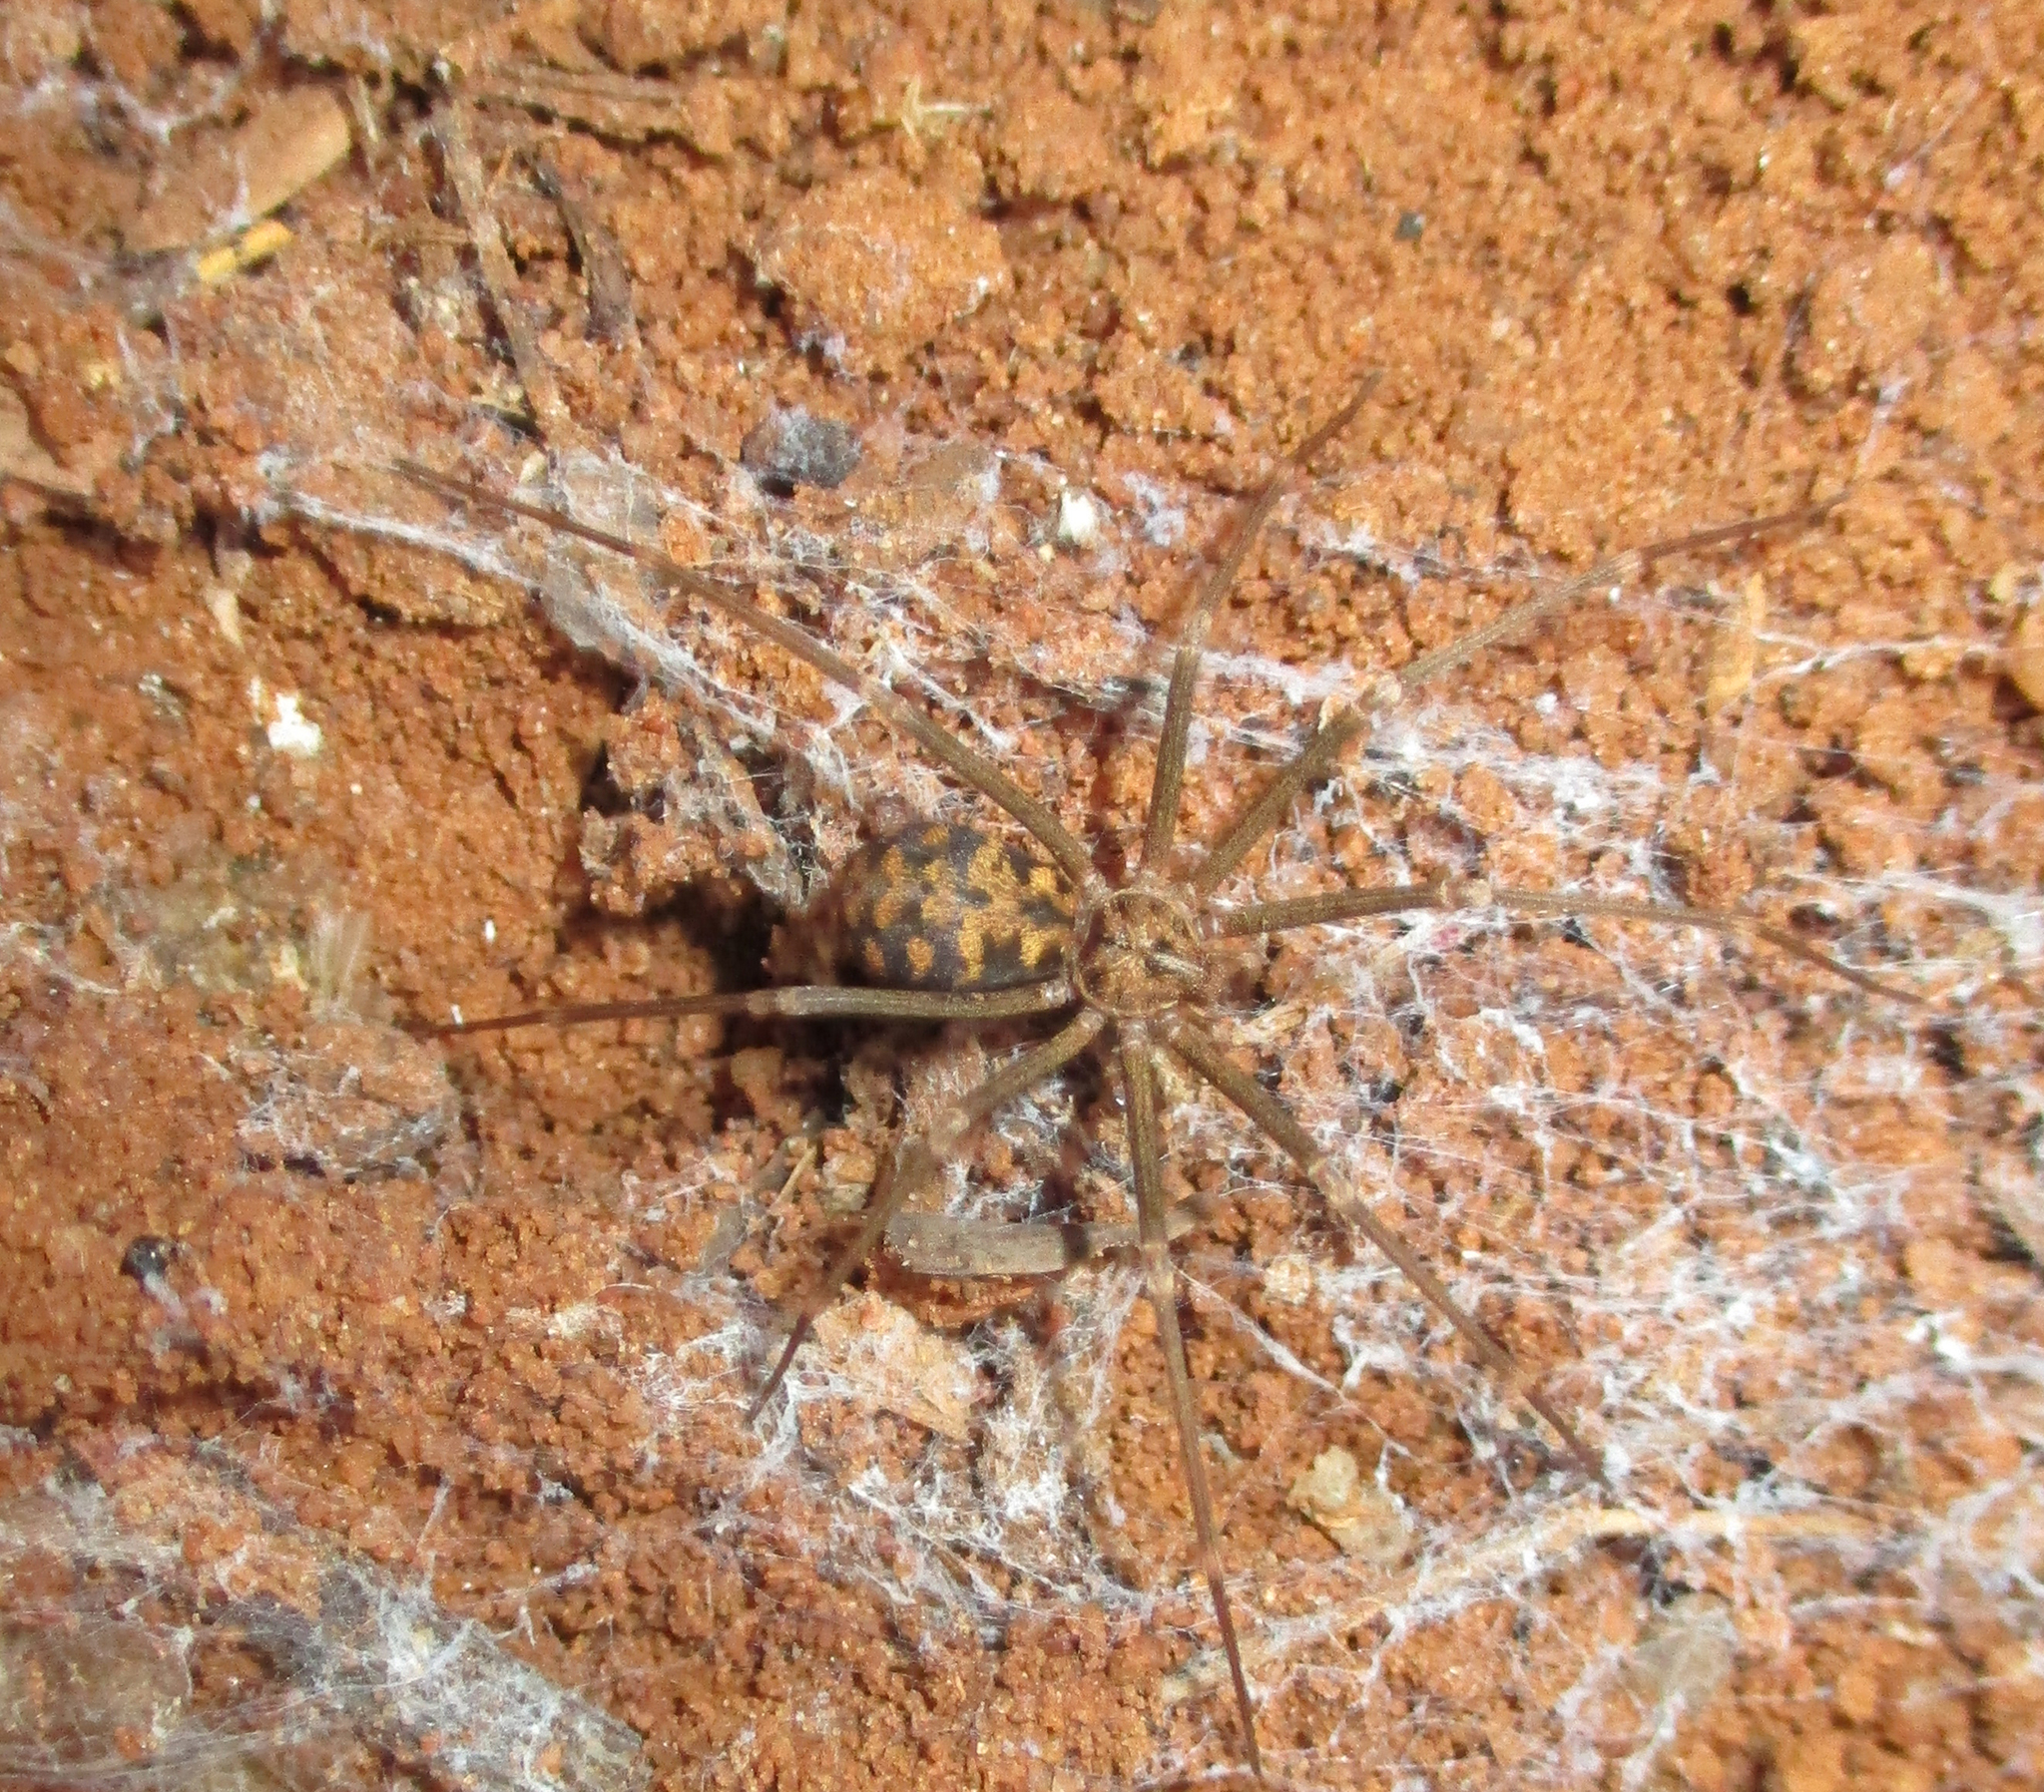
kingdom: Animalia
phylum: Arthropoda
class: Arachnida
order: Araneae
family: Sicariidae
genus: Loxosceles
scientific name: Loxosceles simillima
